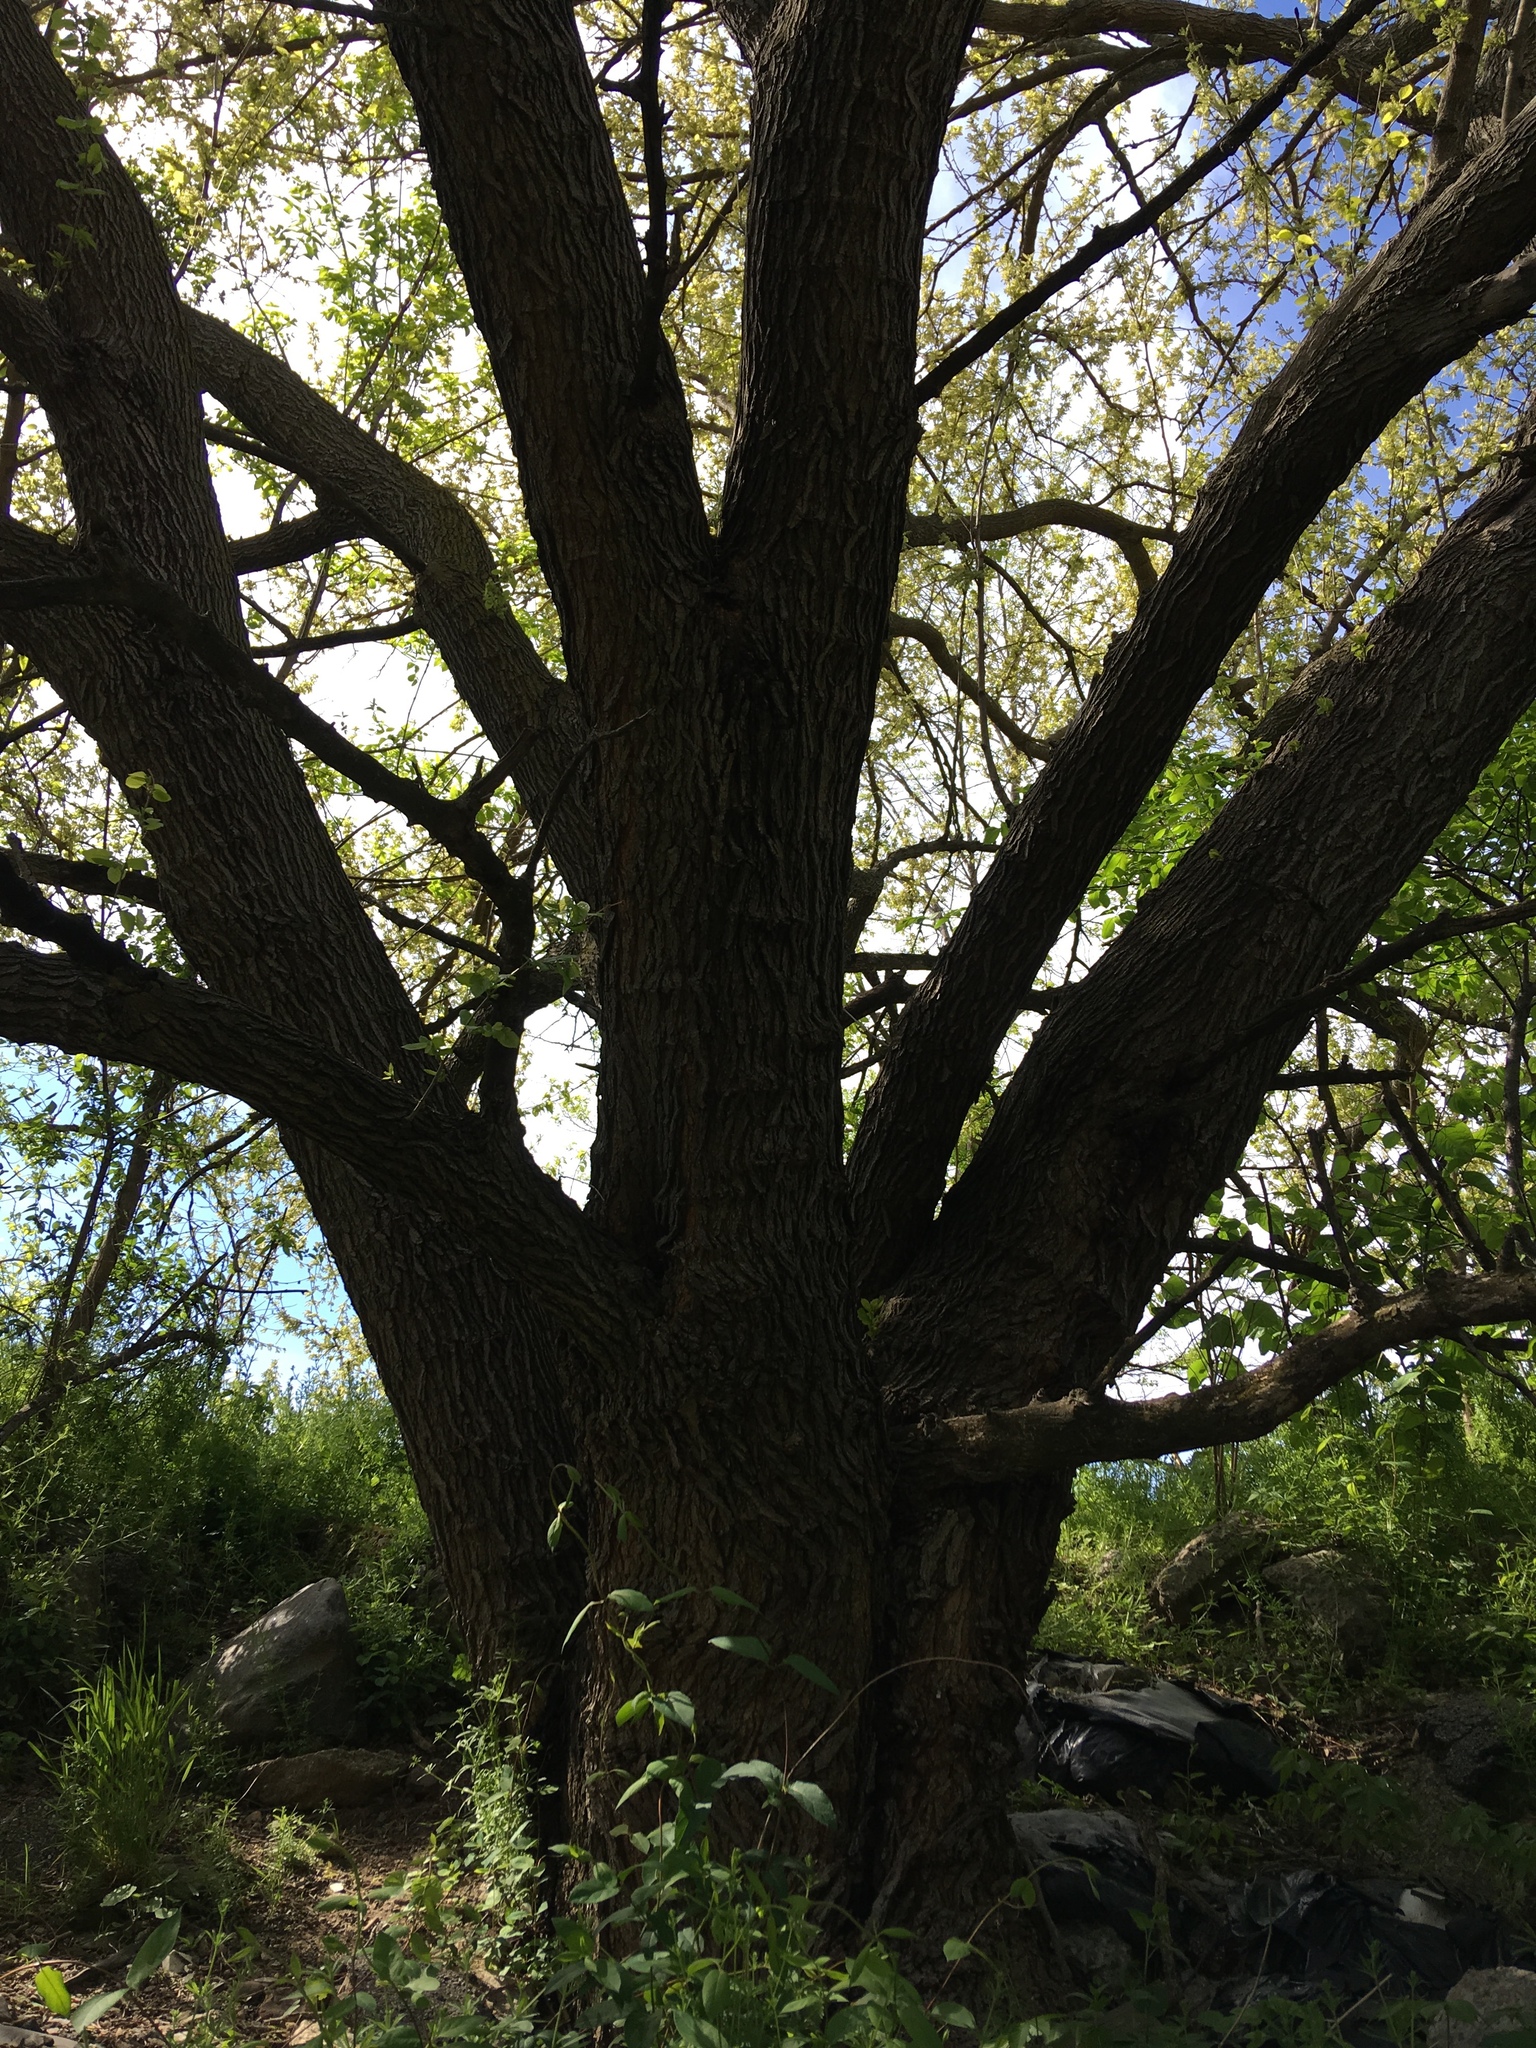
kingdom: Plantae
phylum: Tracheophyta
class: Magnoliopsida
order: Rosales
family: Moraceae
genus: Morus
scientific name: Morus alba
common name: White mulberry
